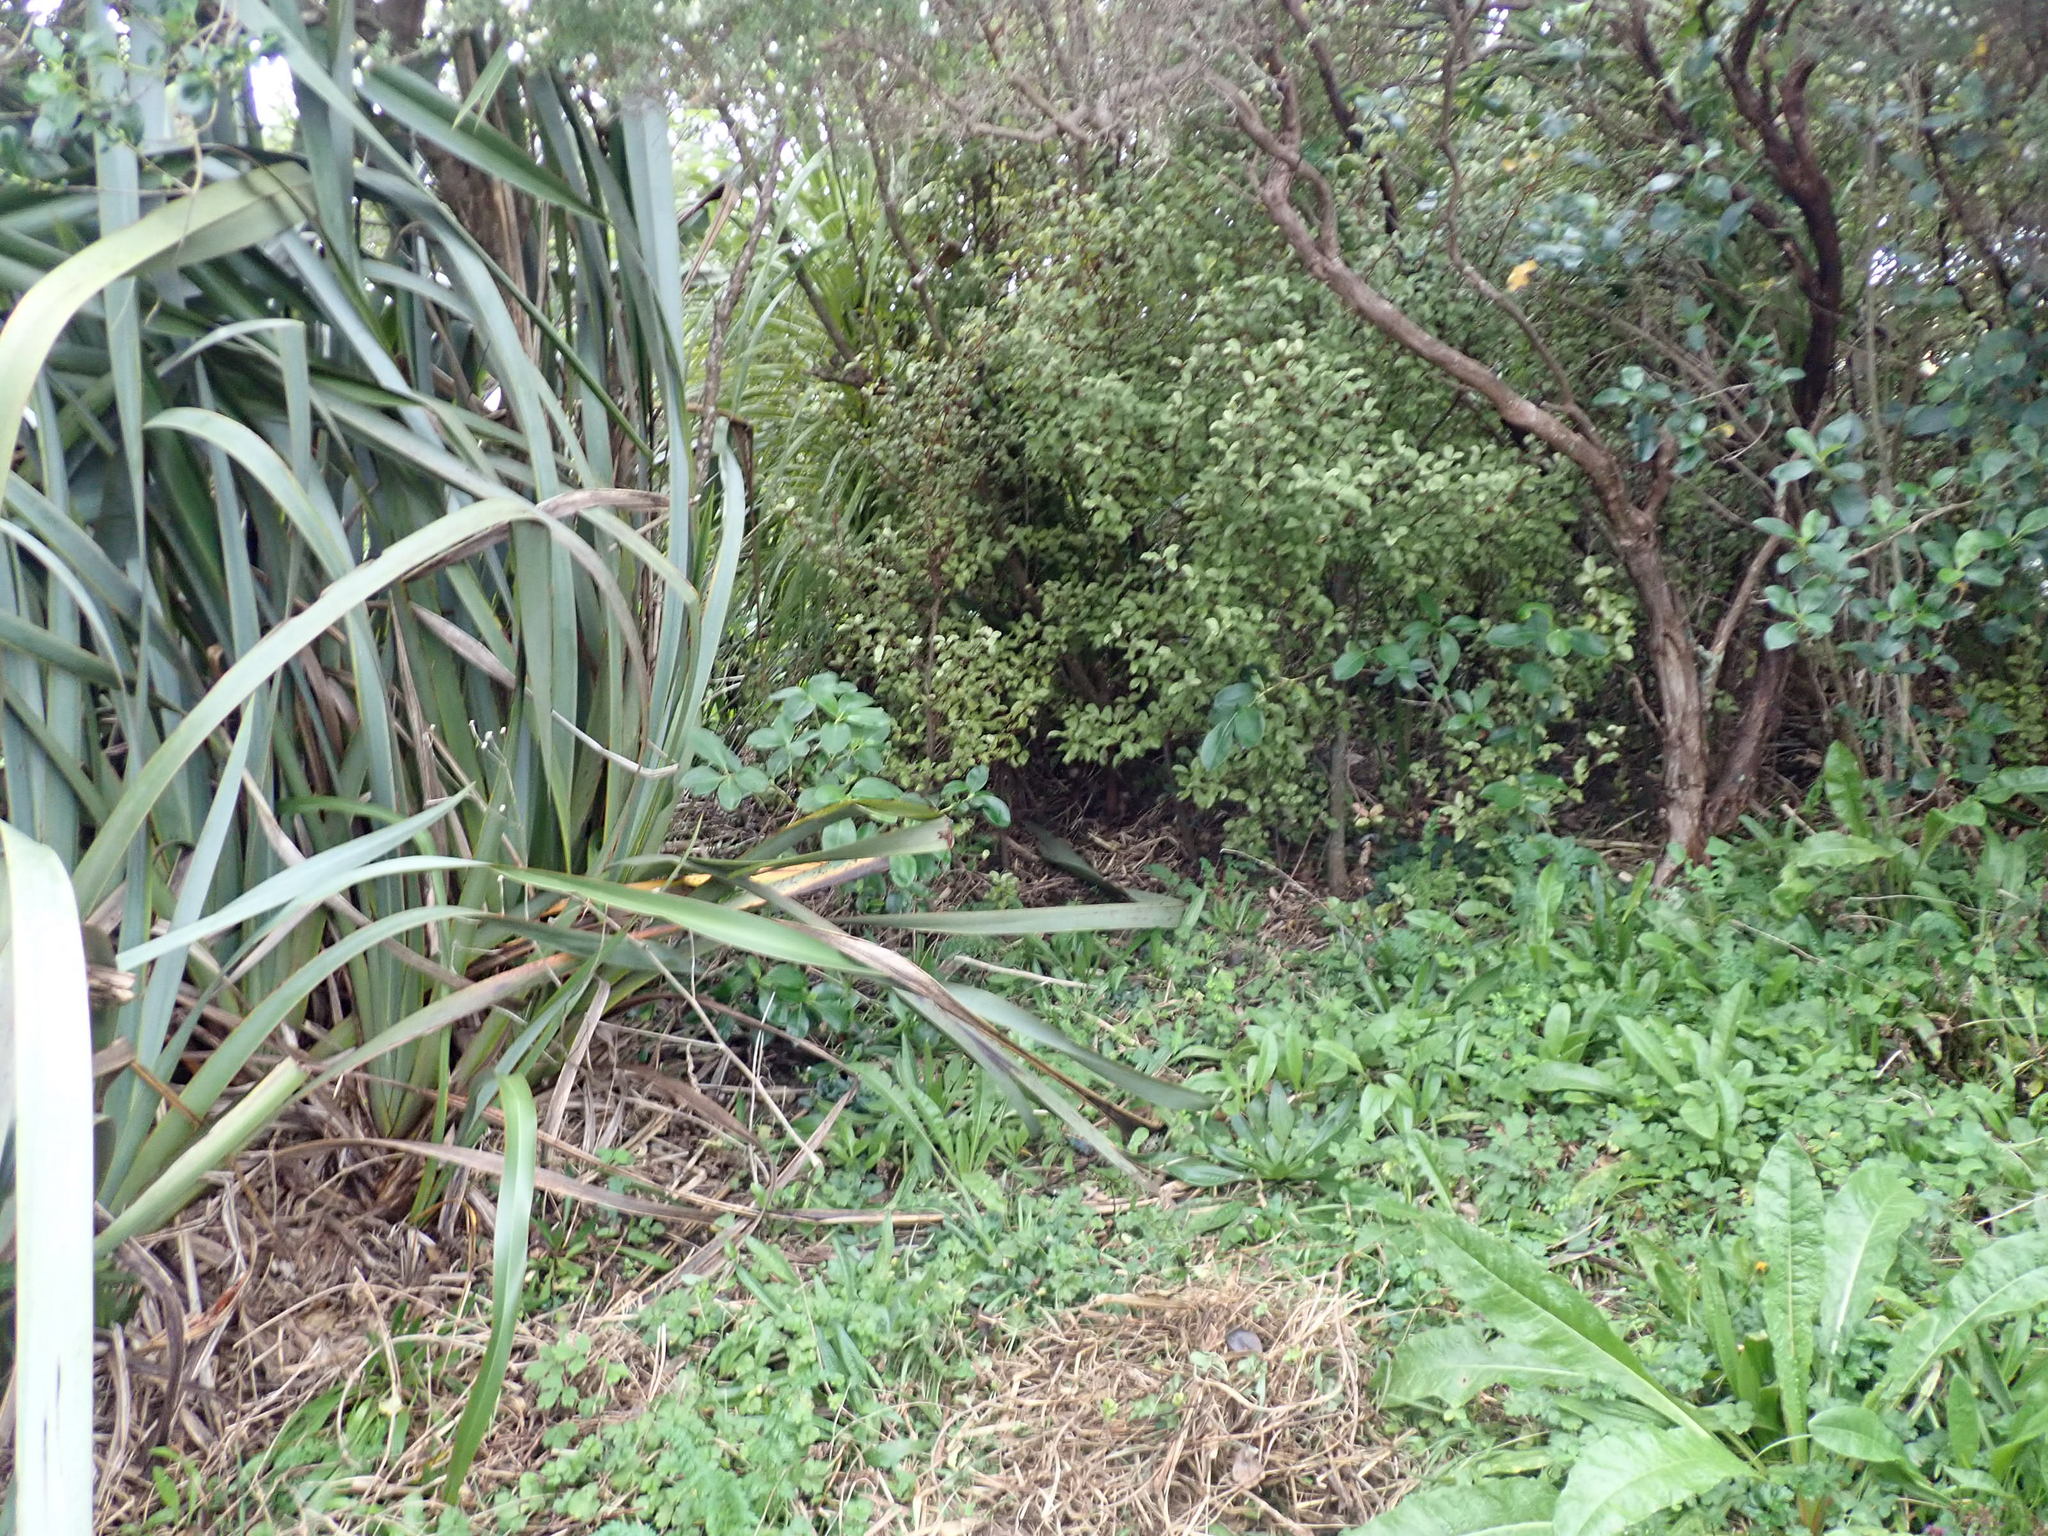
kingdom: Plantae
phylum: Tracheophyta
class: Magnoliopsida
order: Ericales
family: Primulaceae
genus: Myrsine
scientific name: Myrsine australis
